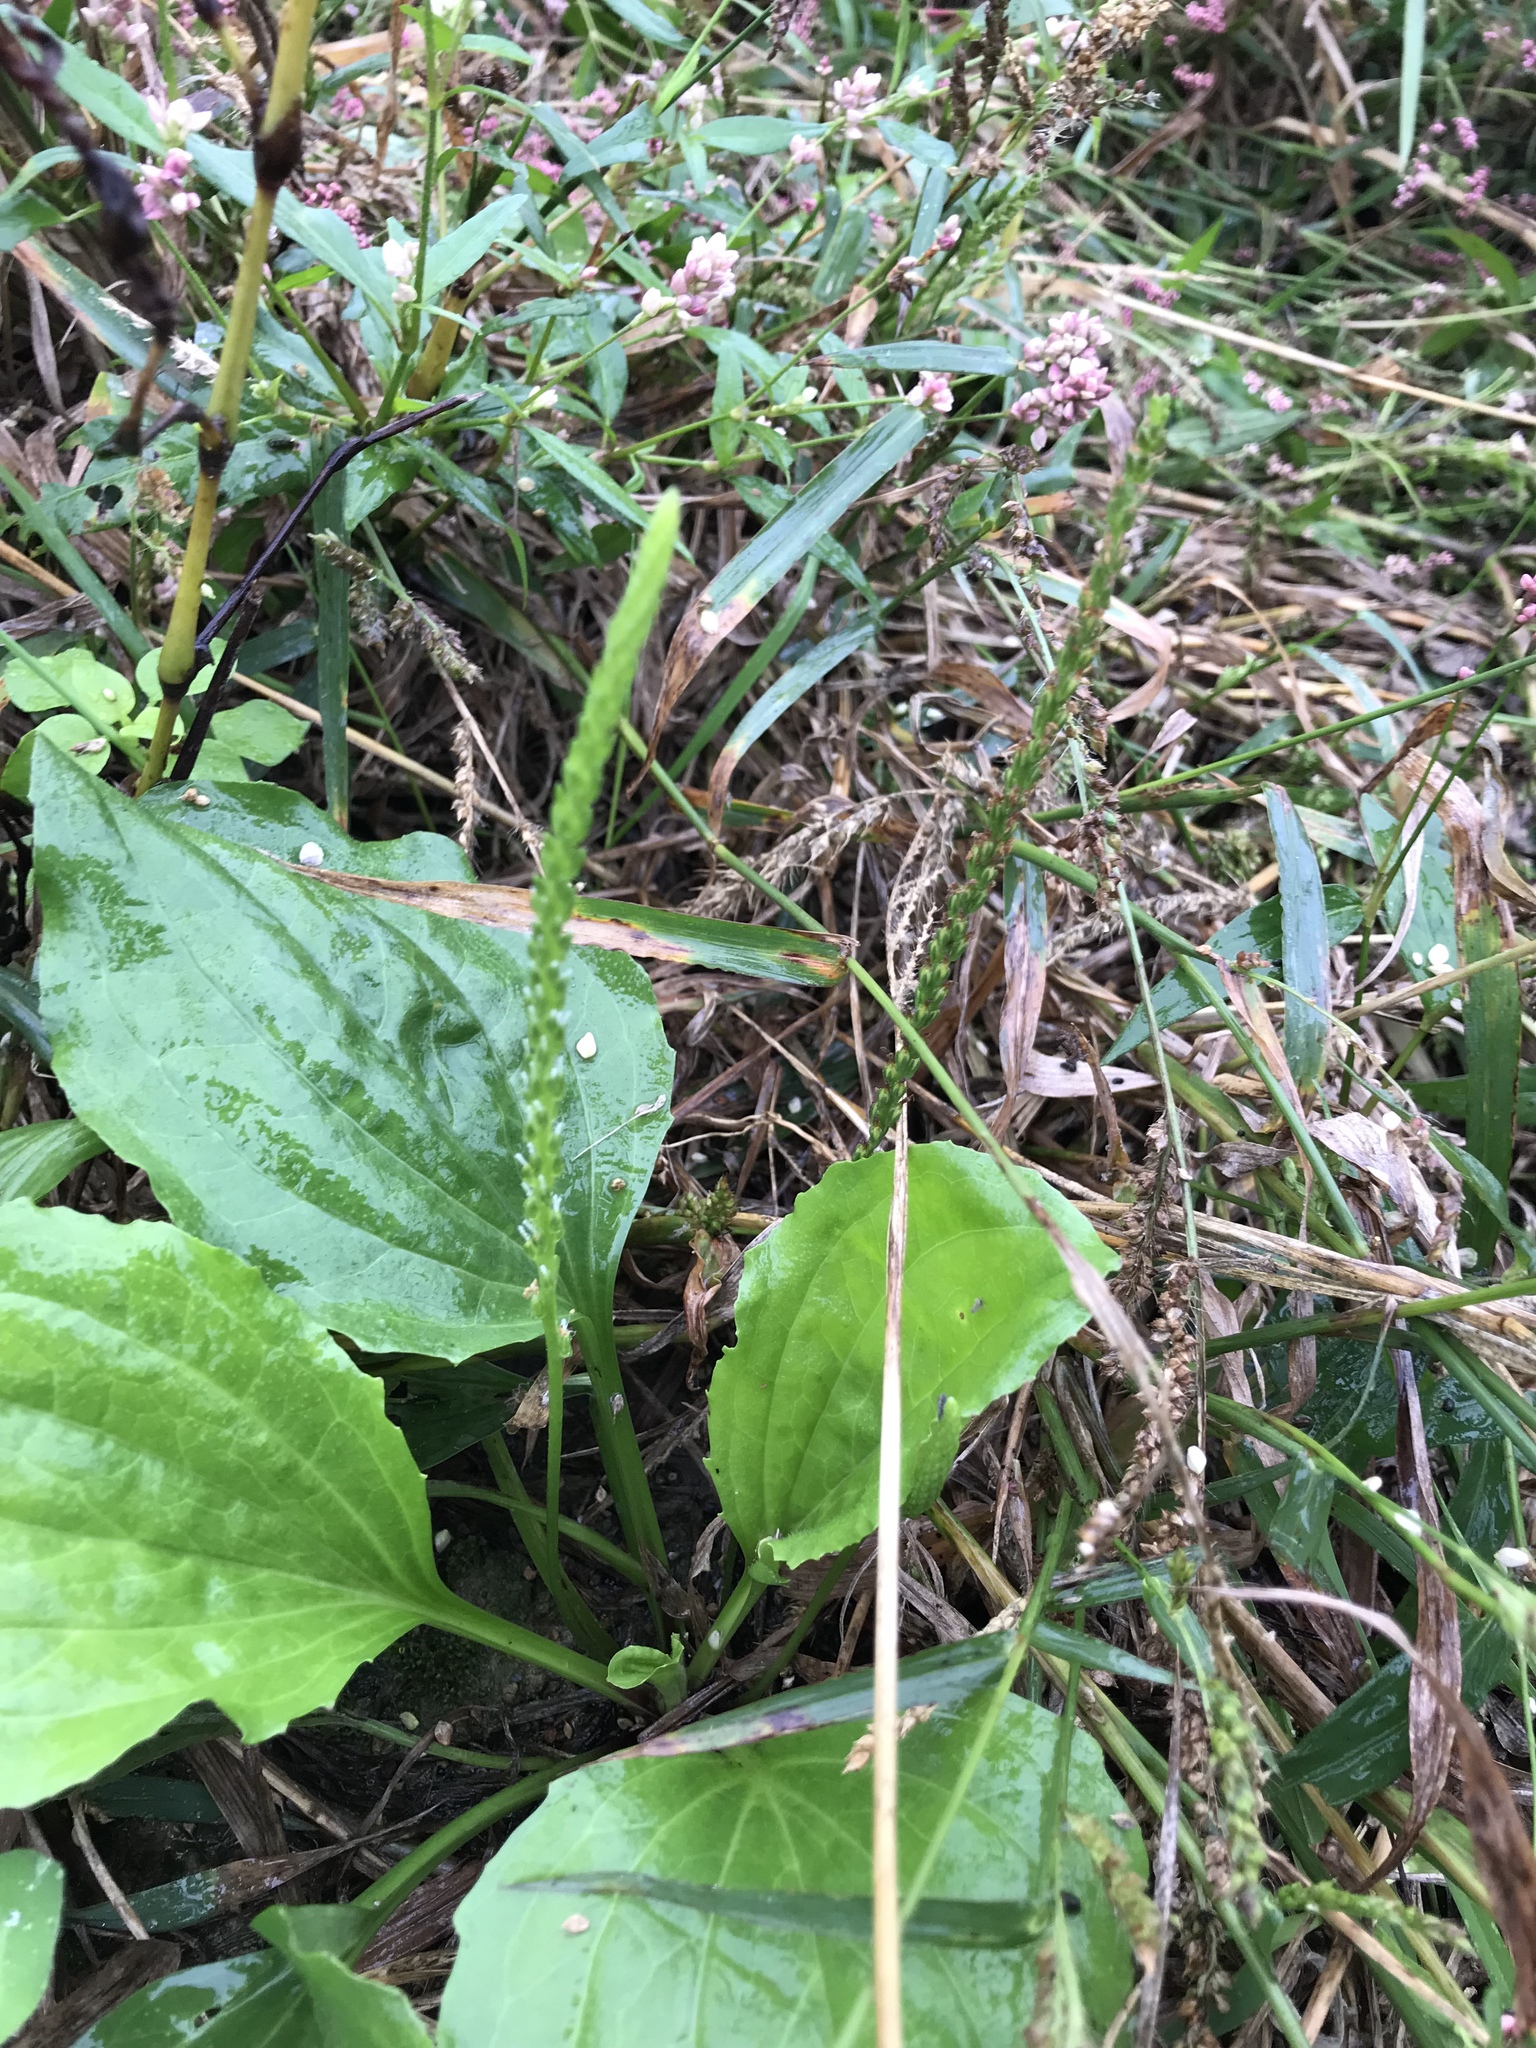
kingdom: Plantae
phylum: Tracheophyta
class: Magnoliopsida
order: Lamiales
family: Plantaginaceae
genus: Plantago
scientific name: Plantago major
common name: Common plantain
